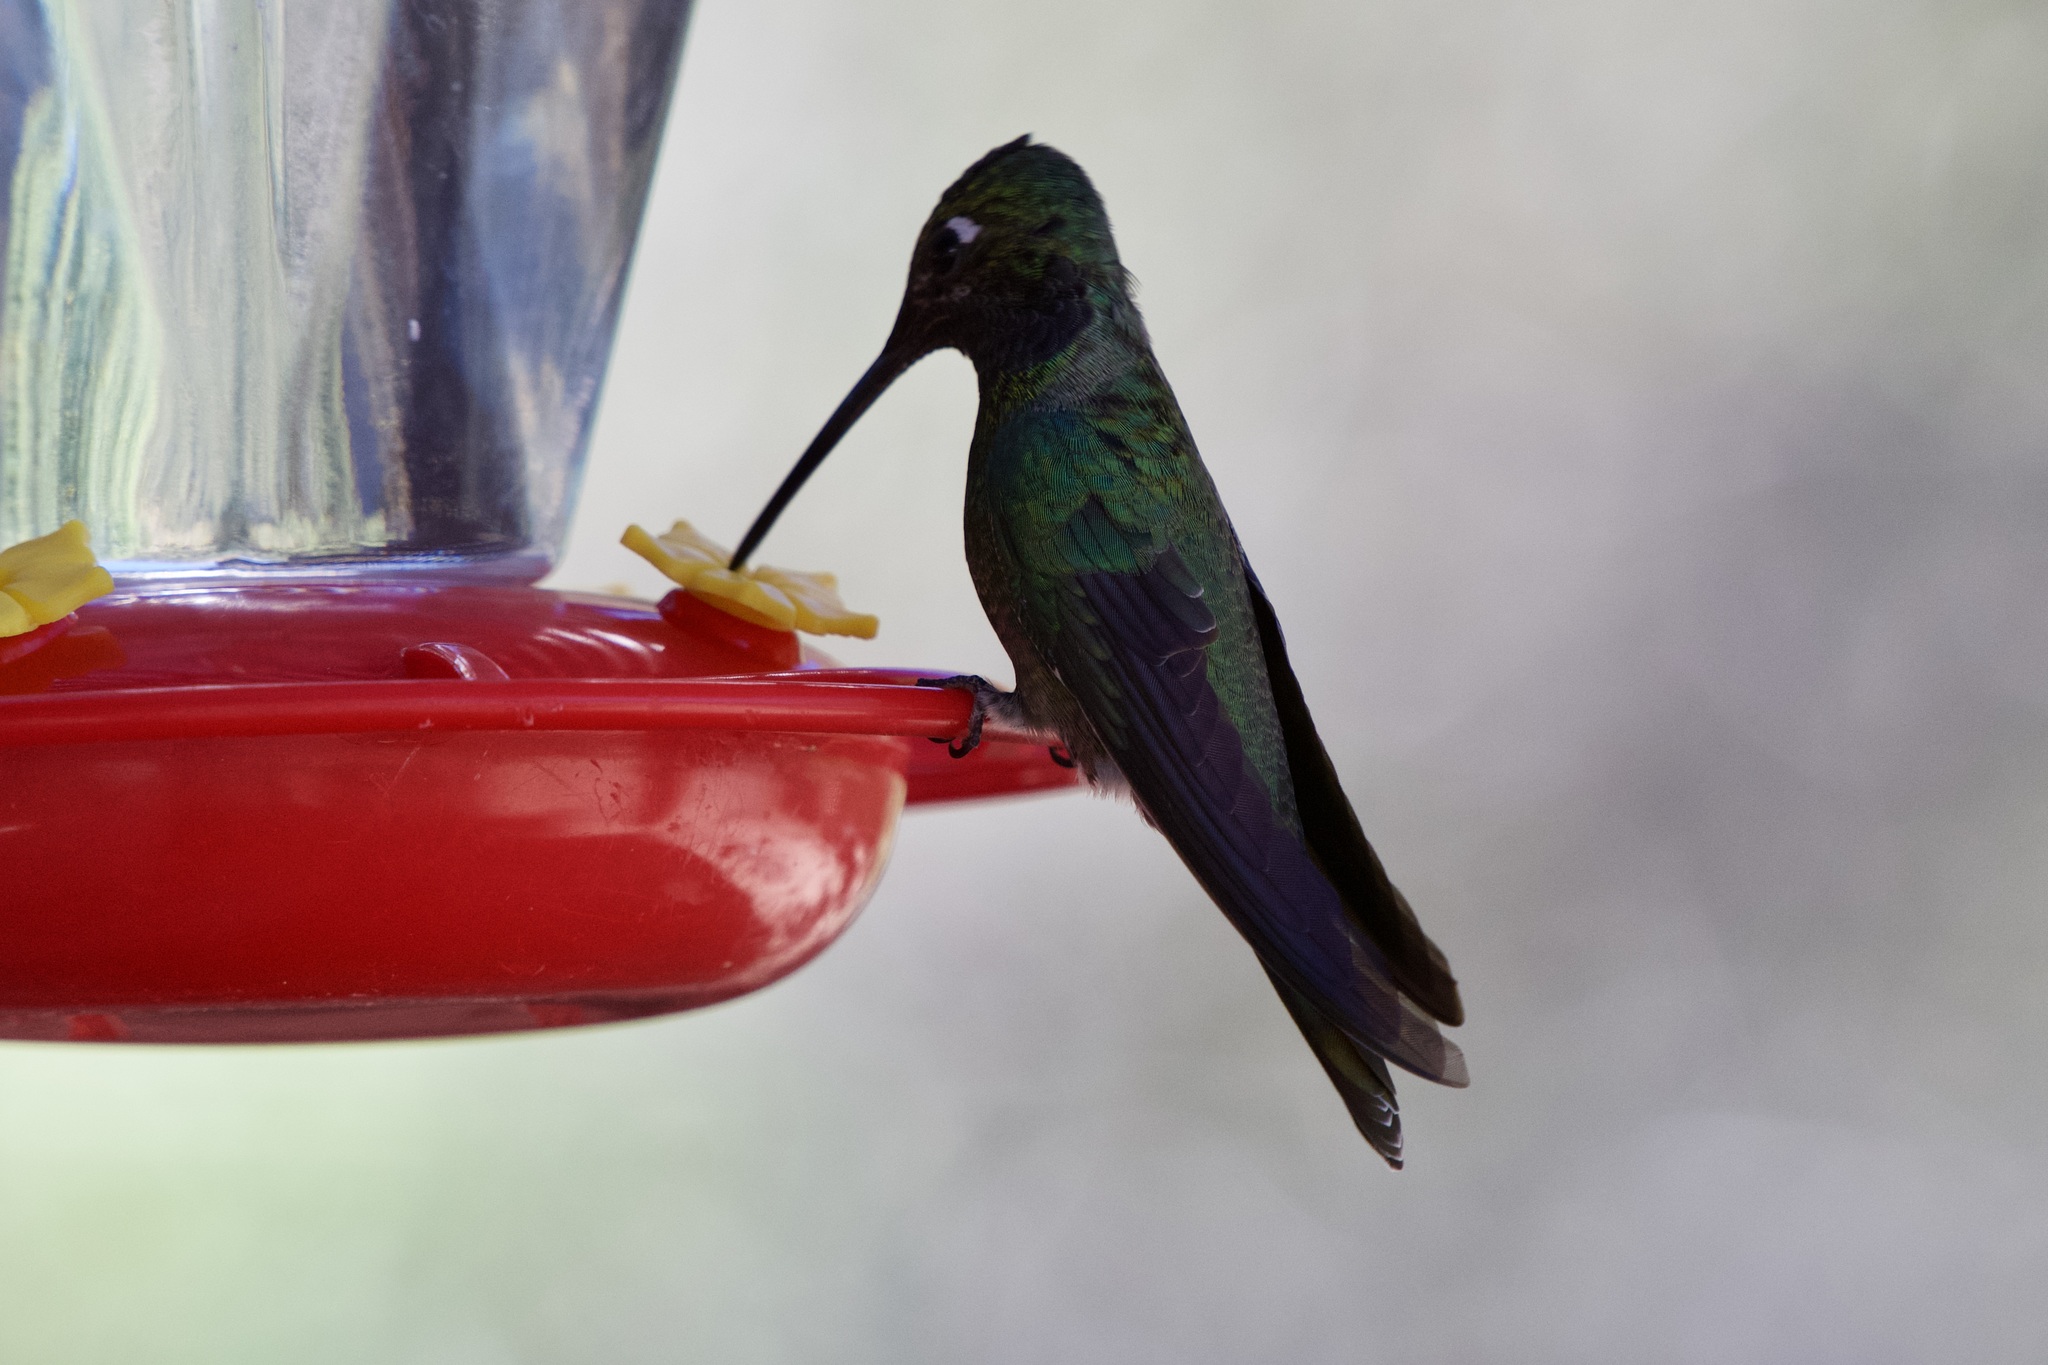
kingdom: Animalia
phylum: Chordata
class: Aves
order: Apodiformes
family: Trochilidae
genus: Eugenes
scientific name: Eugenes fulgens
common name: Magnificent hummingbird
